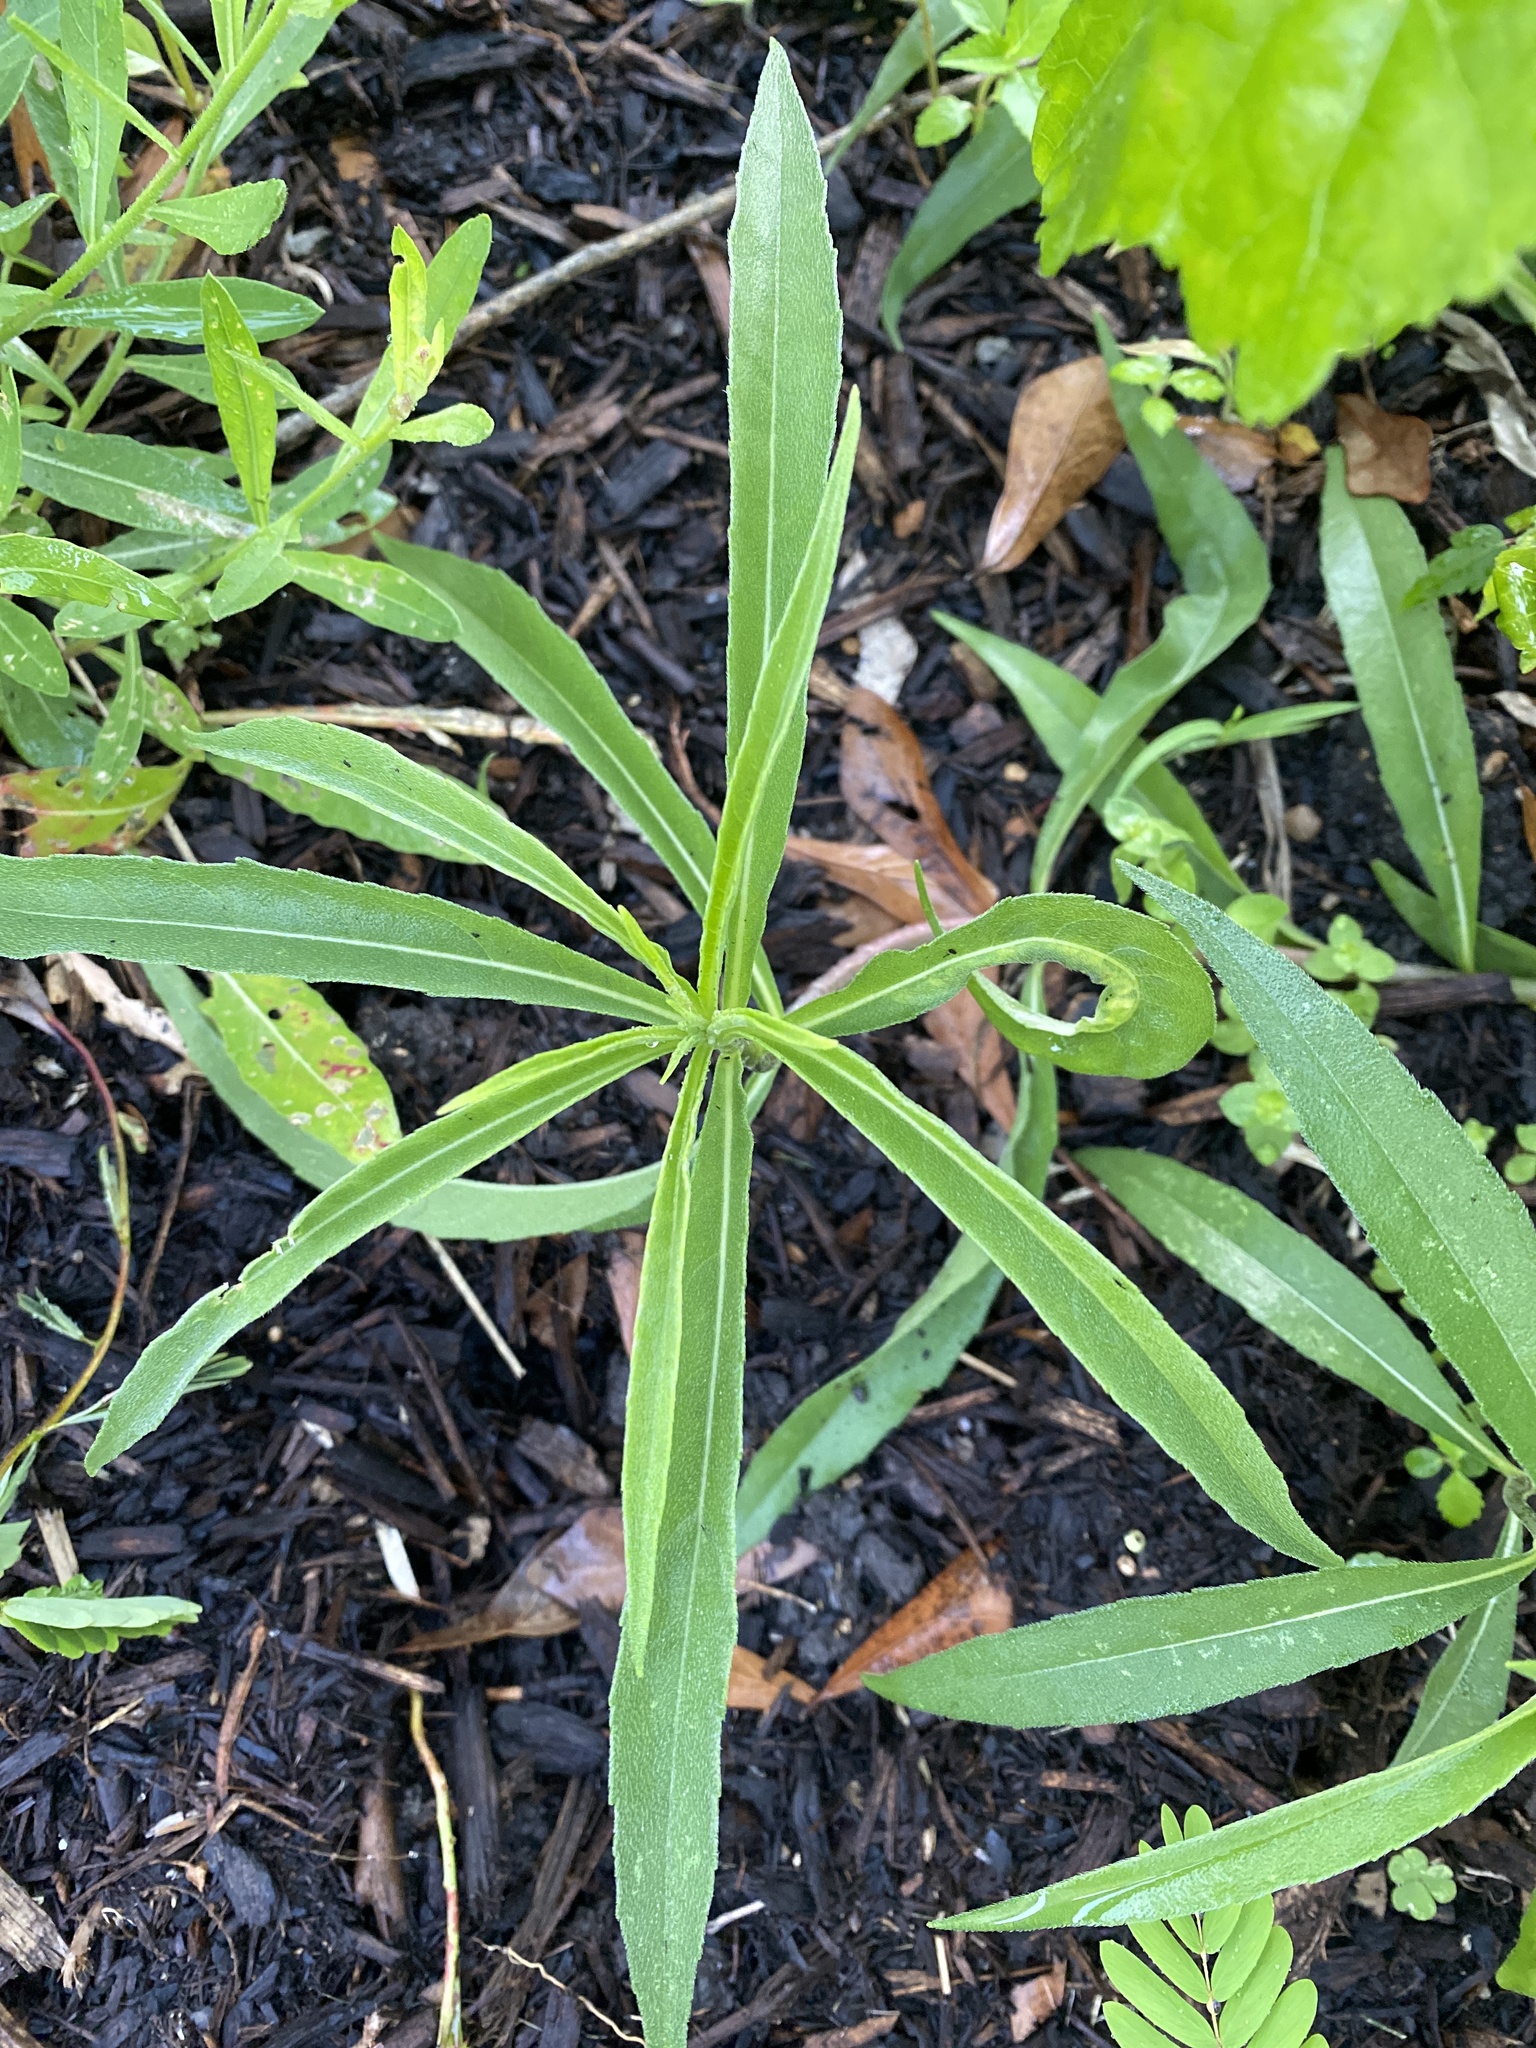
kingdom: Plantae
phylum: Tracheophyta
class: Magnoliopsida
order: Asterales
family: Asteraceae
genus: Helianthus
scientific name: Helianthus maximiliani
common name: Maximilian's sunflower
